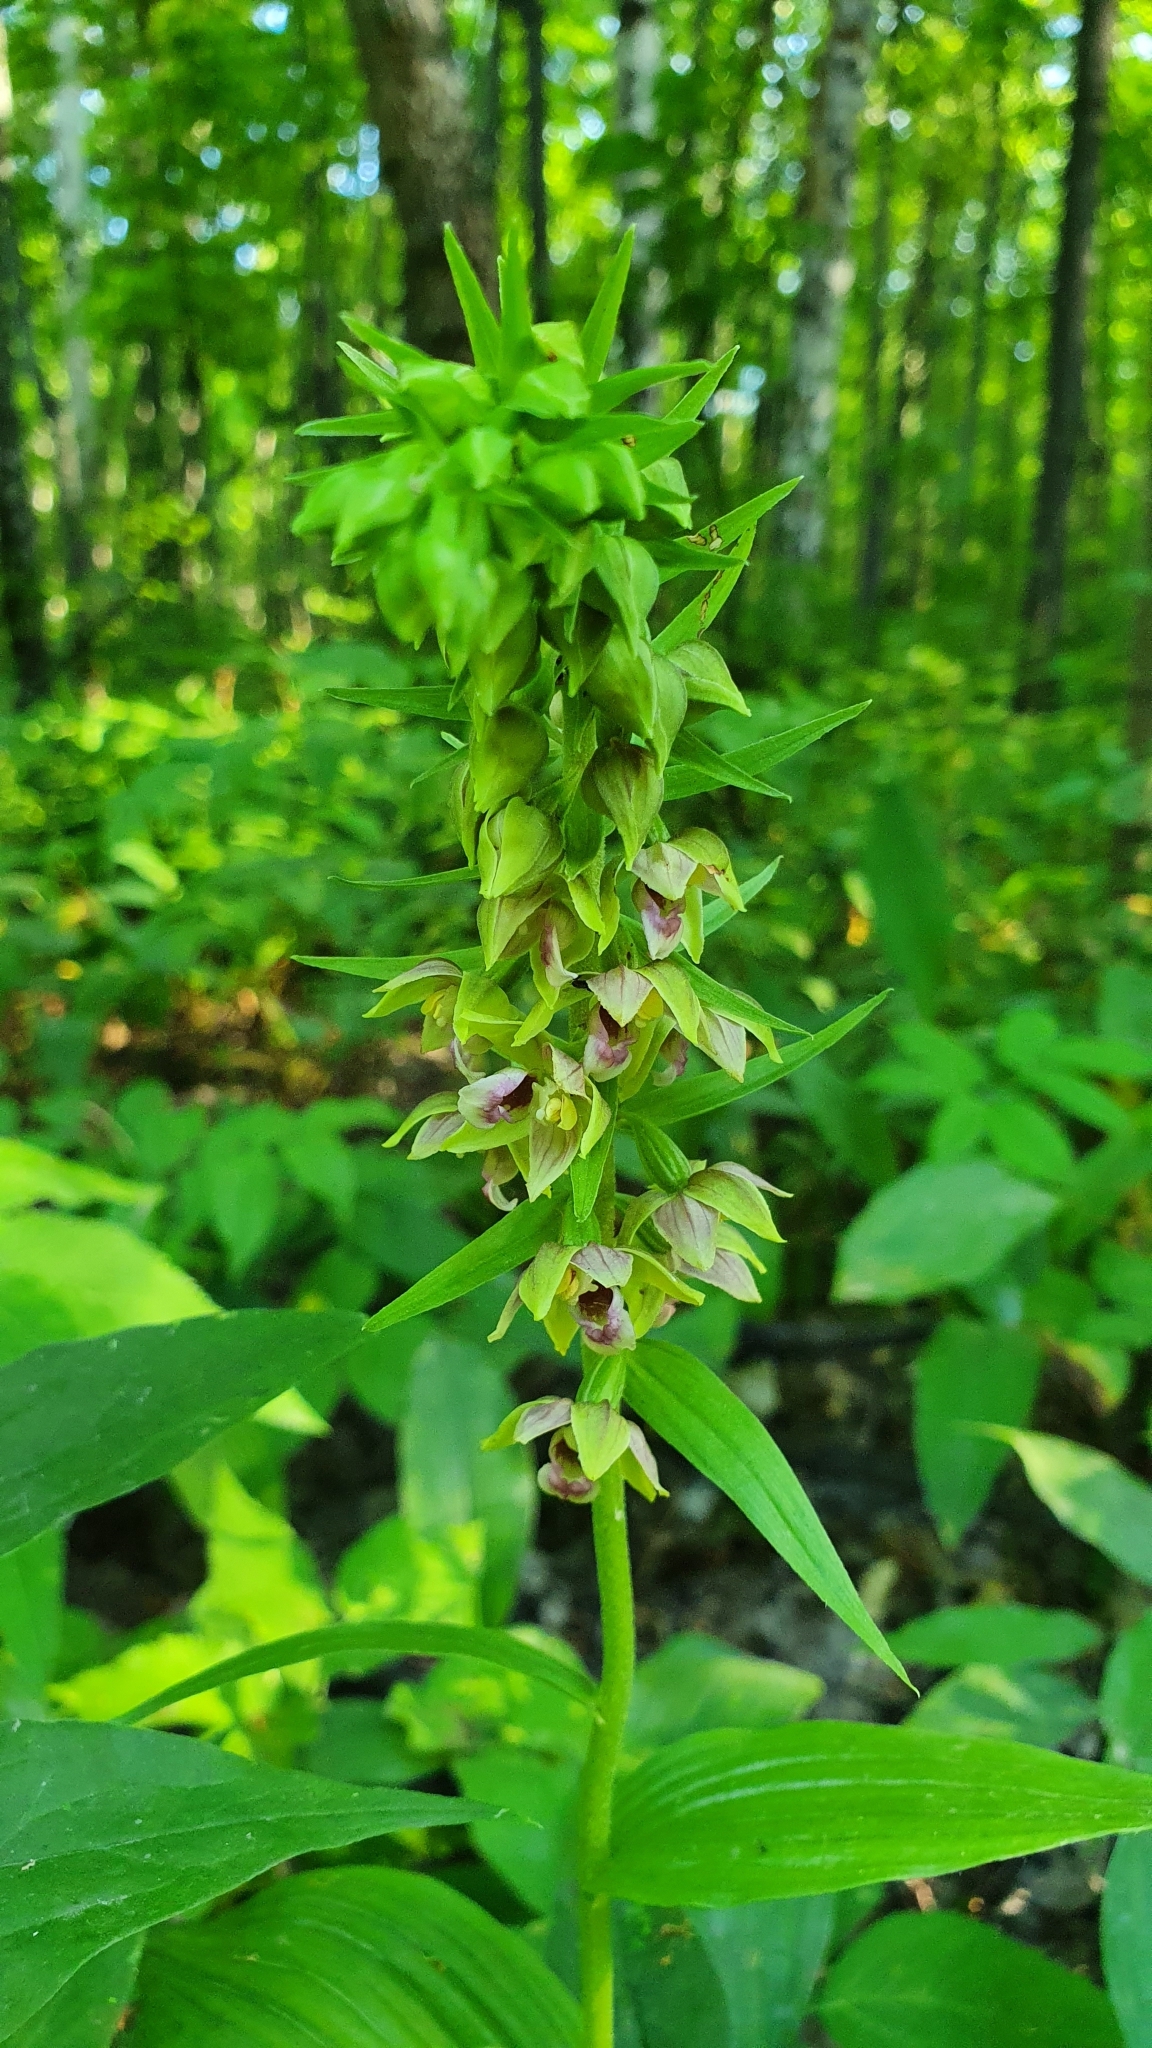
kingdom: Plantae
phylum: Tracheophyta
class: Liliopsida
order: Asparagales
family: Orchidaceae
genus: Epipactis
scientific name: Epipactis helleborine
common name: Broad-leaved helleborine
